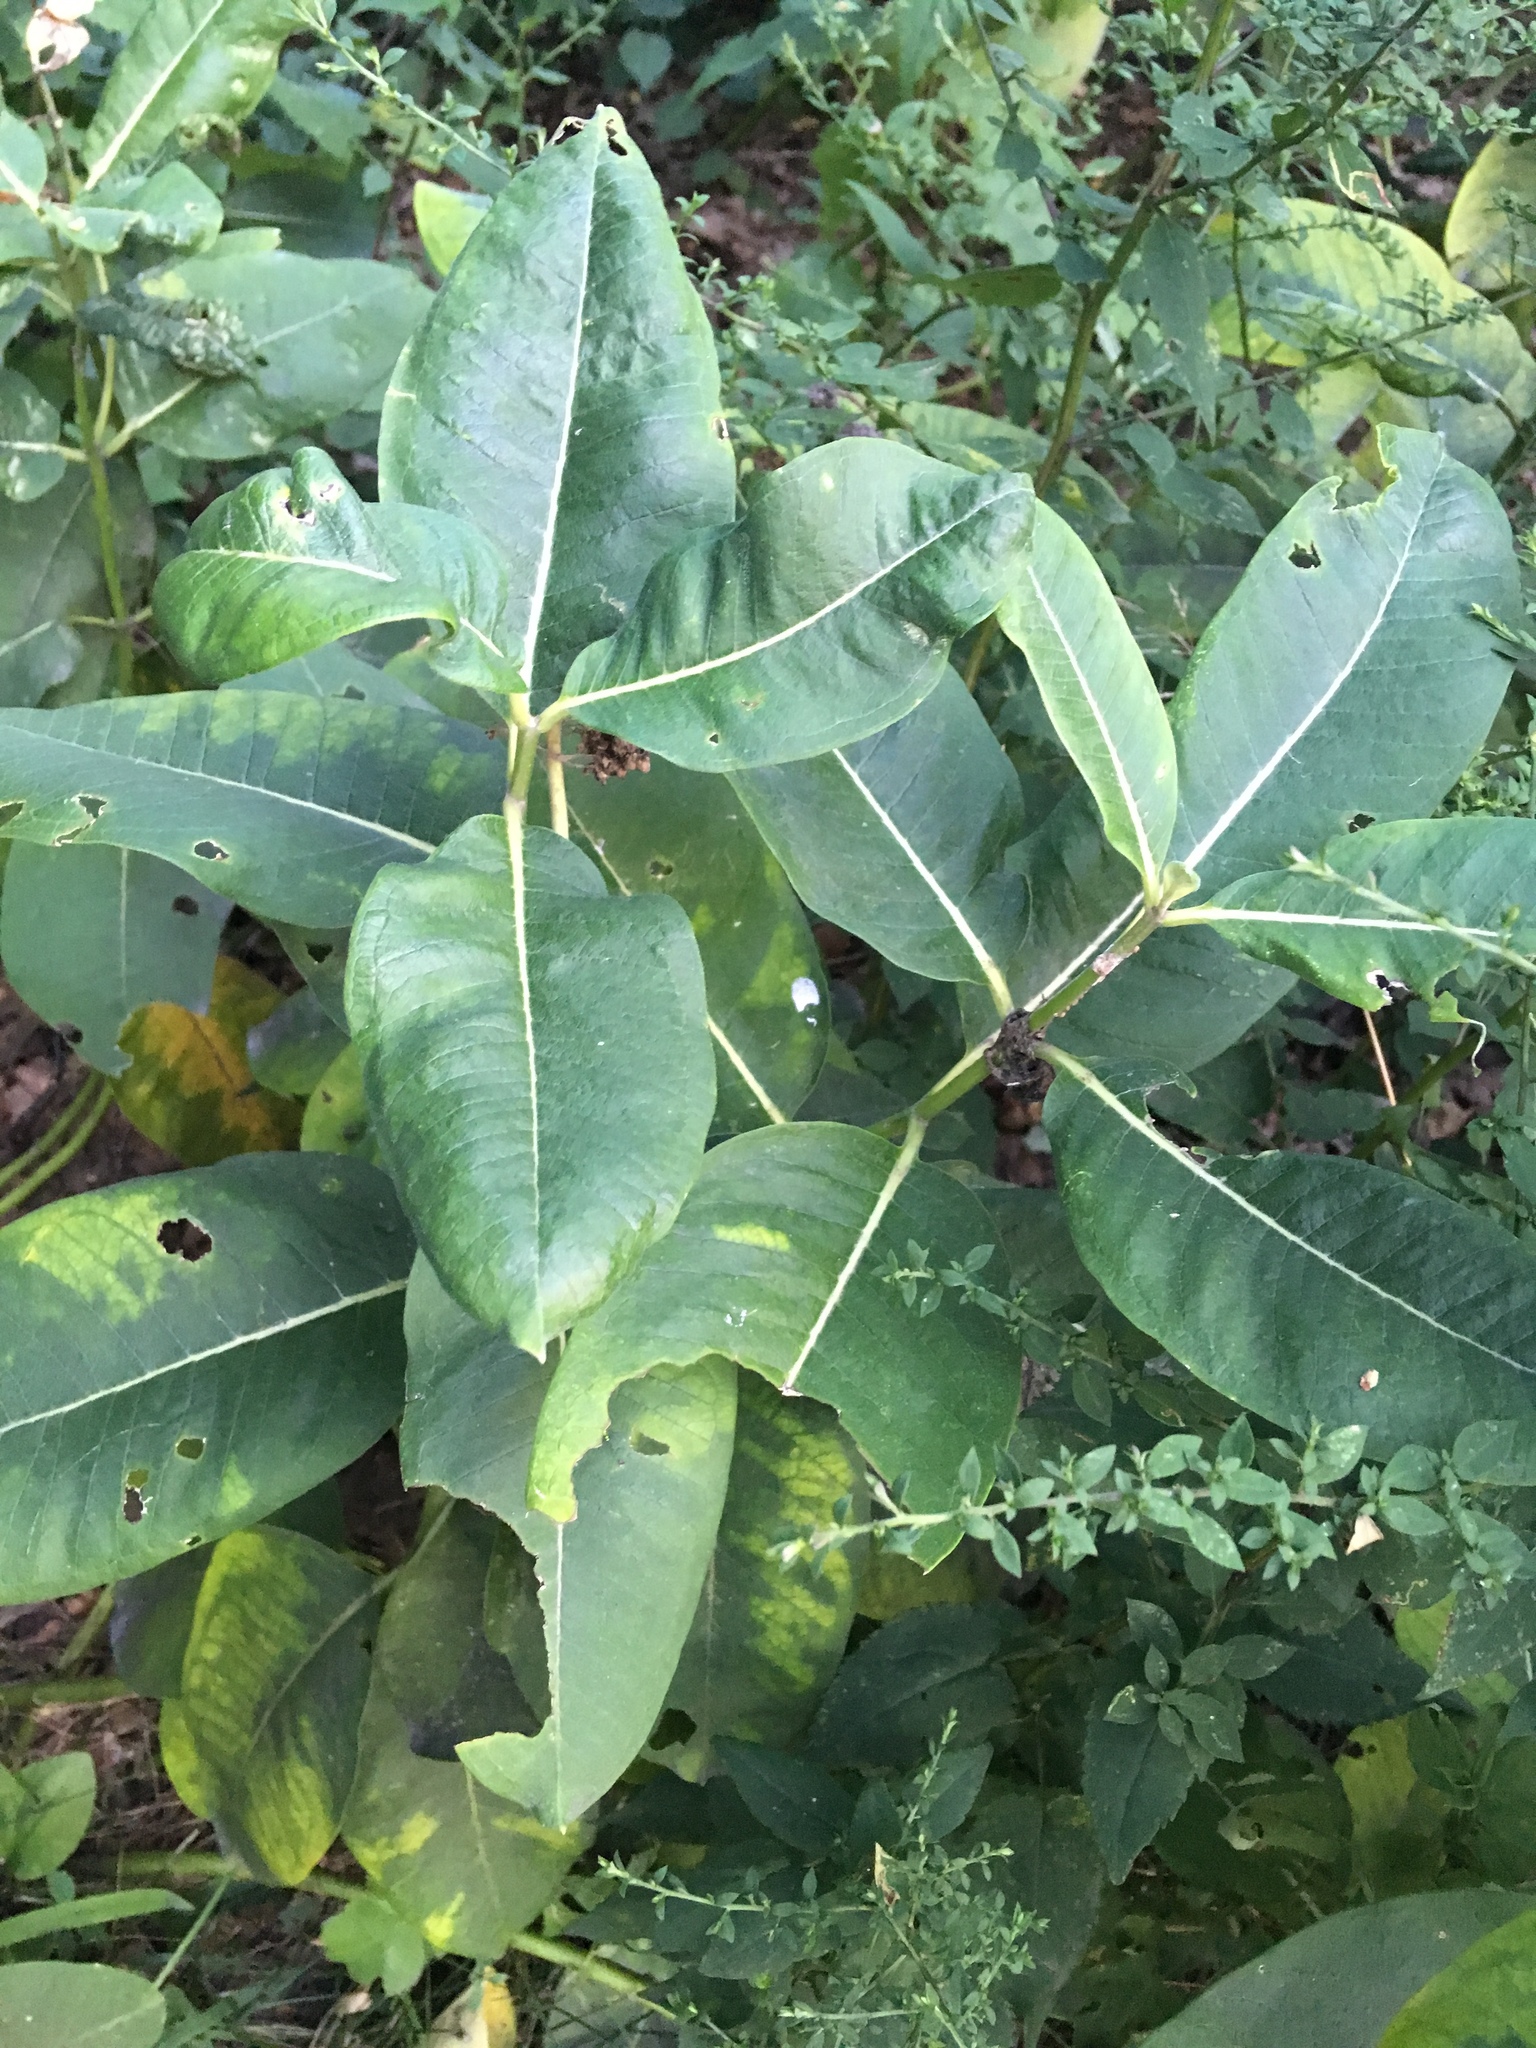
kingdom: Plantae
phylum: Tracheophyta
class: Magnoliopsida
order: Gentianales
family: Apocynaceae
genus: Asclepias
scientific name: Asclepias syriaca
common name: Common milkweed
